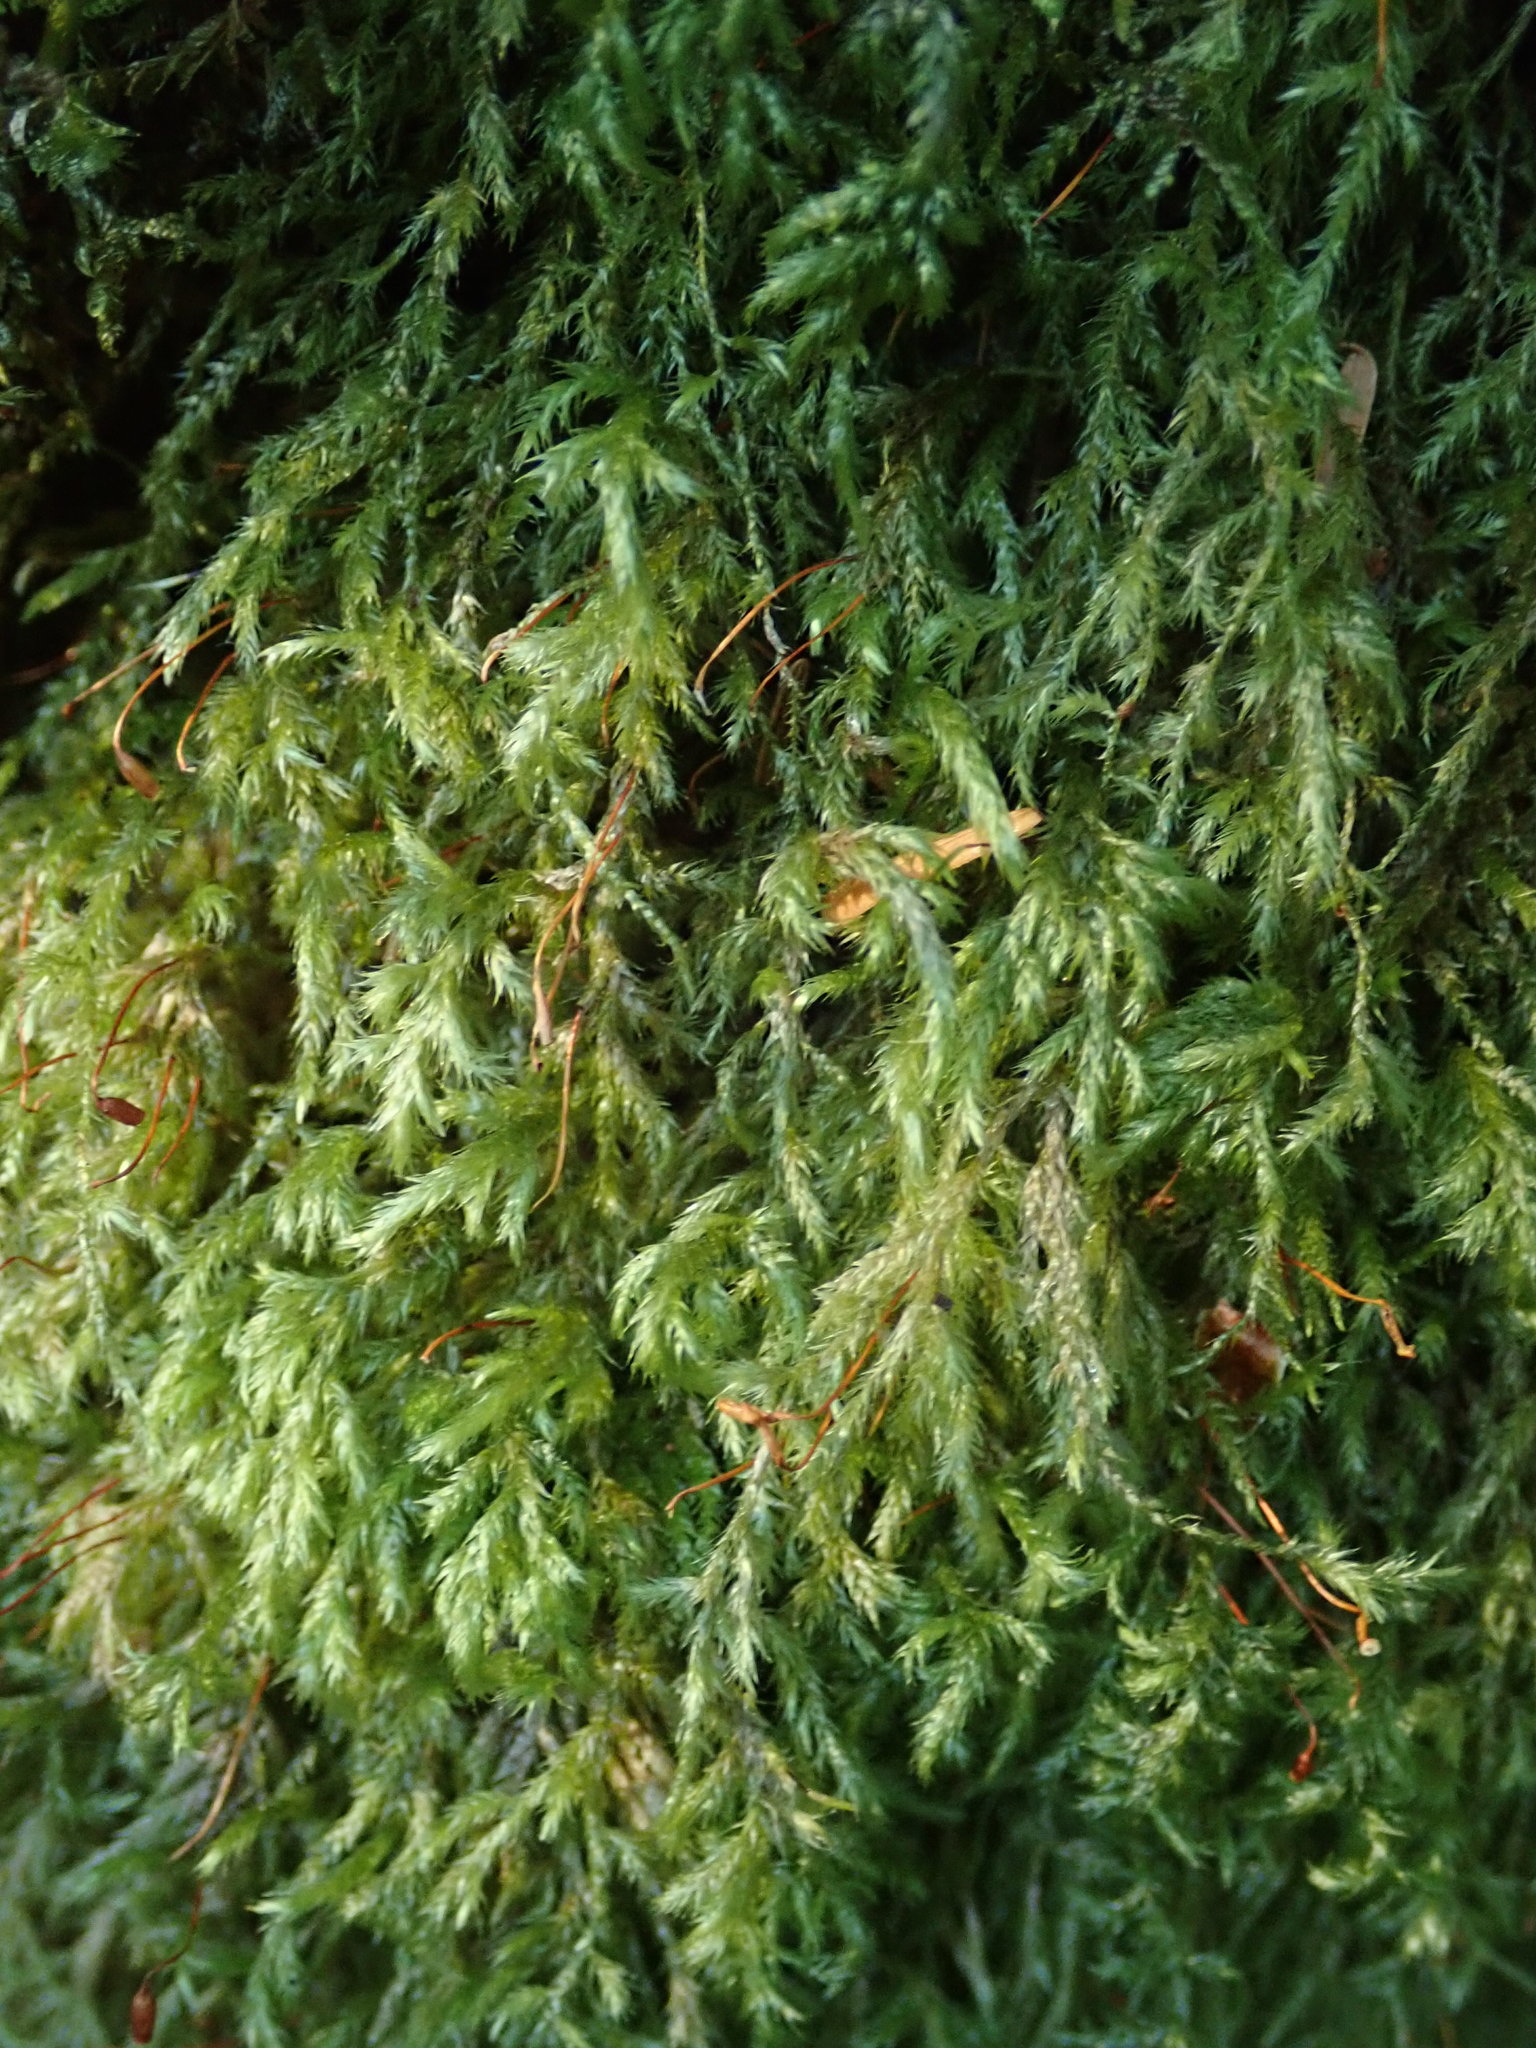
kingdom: Plantae
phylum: Bryophyta
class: Bryopsida
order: Hypnales
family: Lembophyllaceae
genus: Pseudisothecium
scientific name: Pseudisothecium stoloniferum
